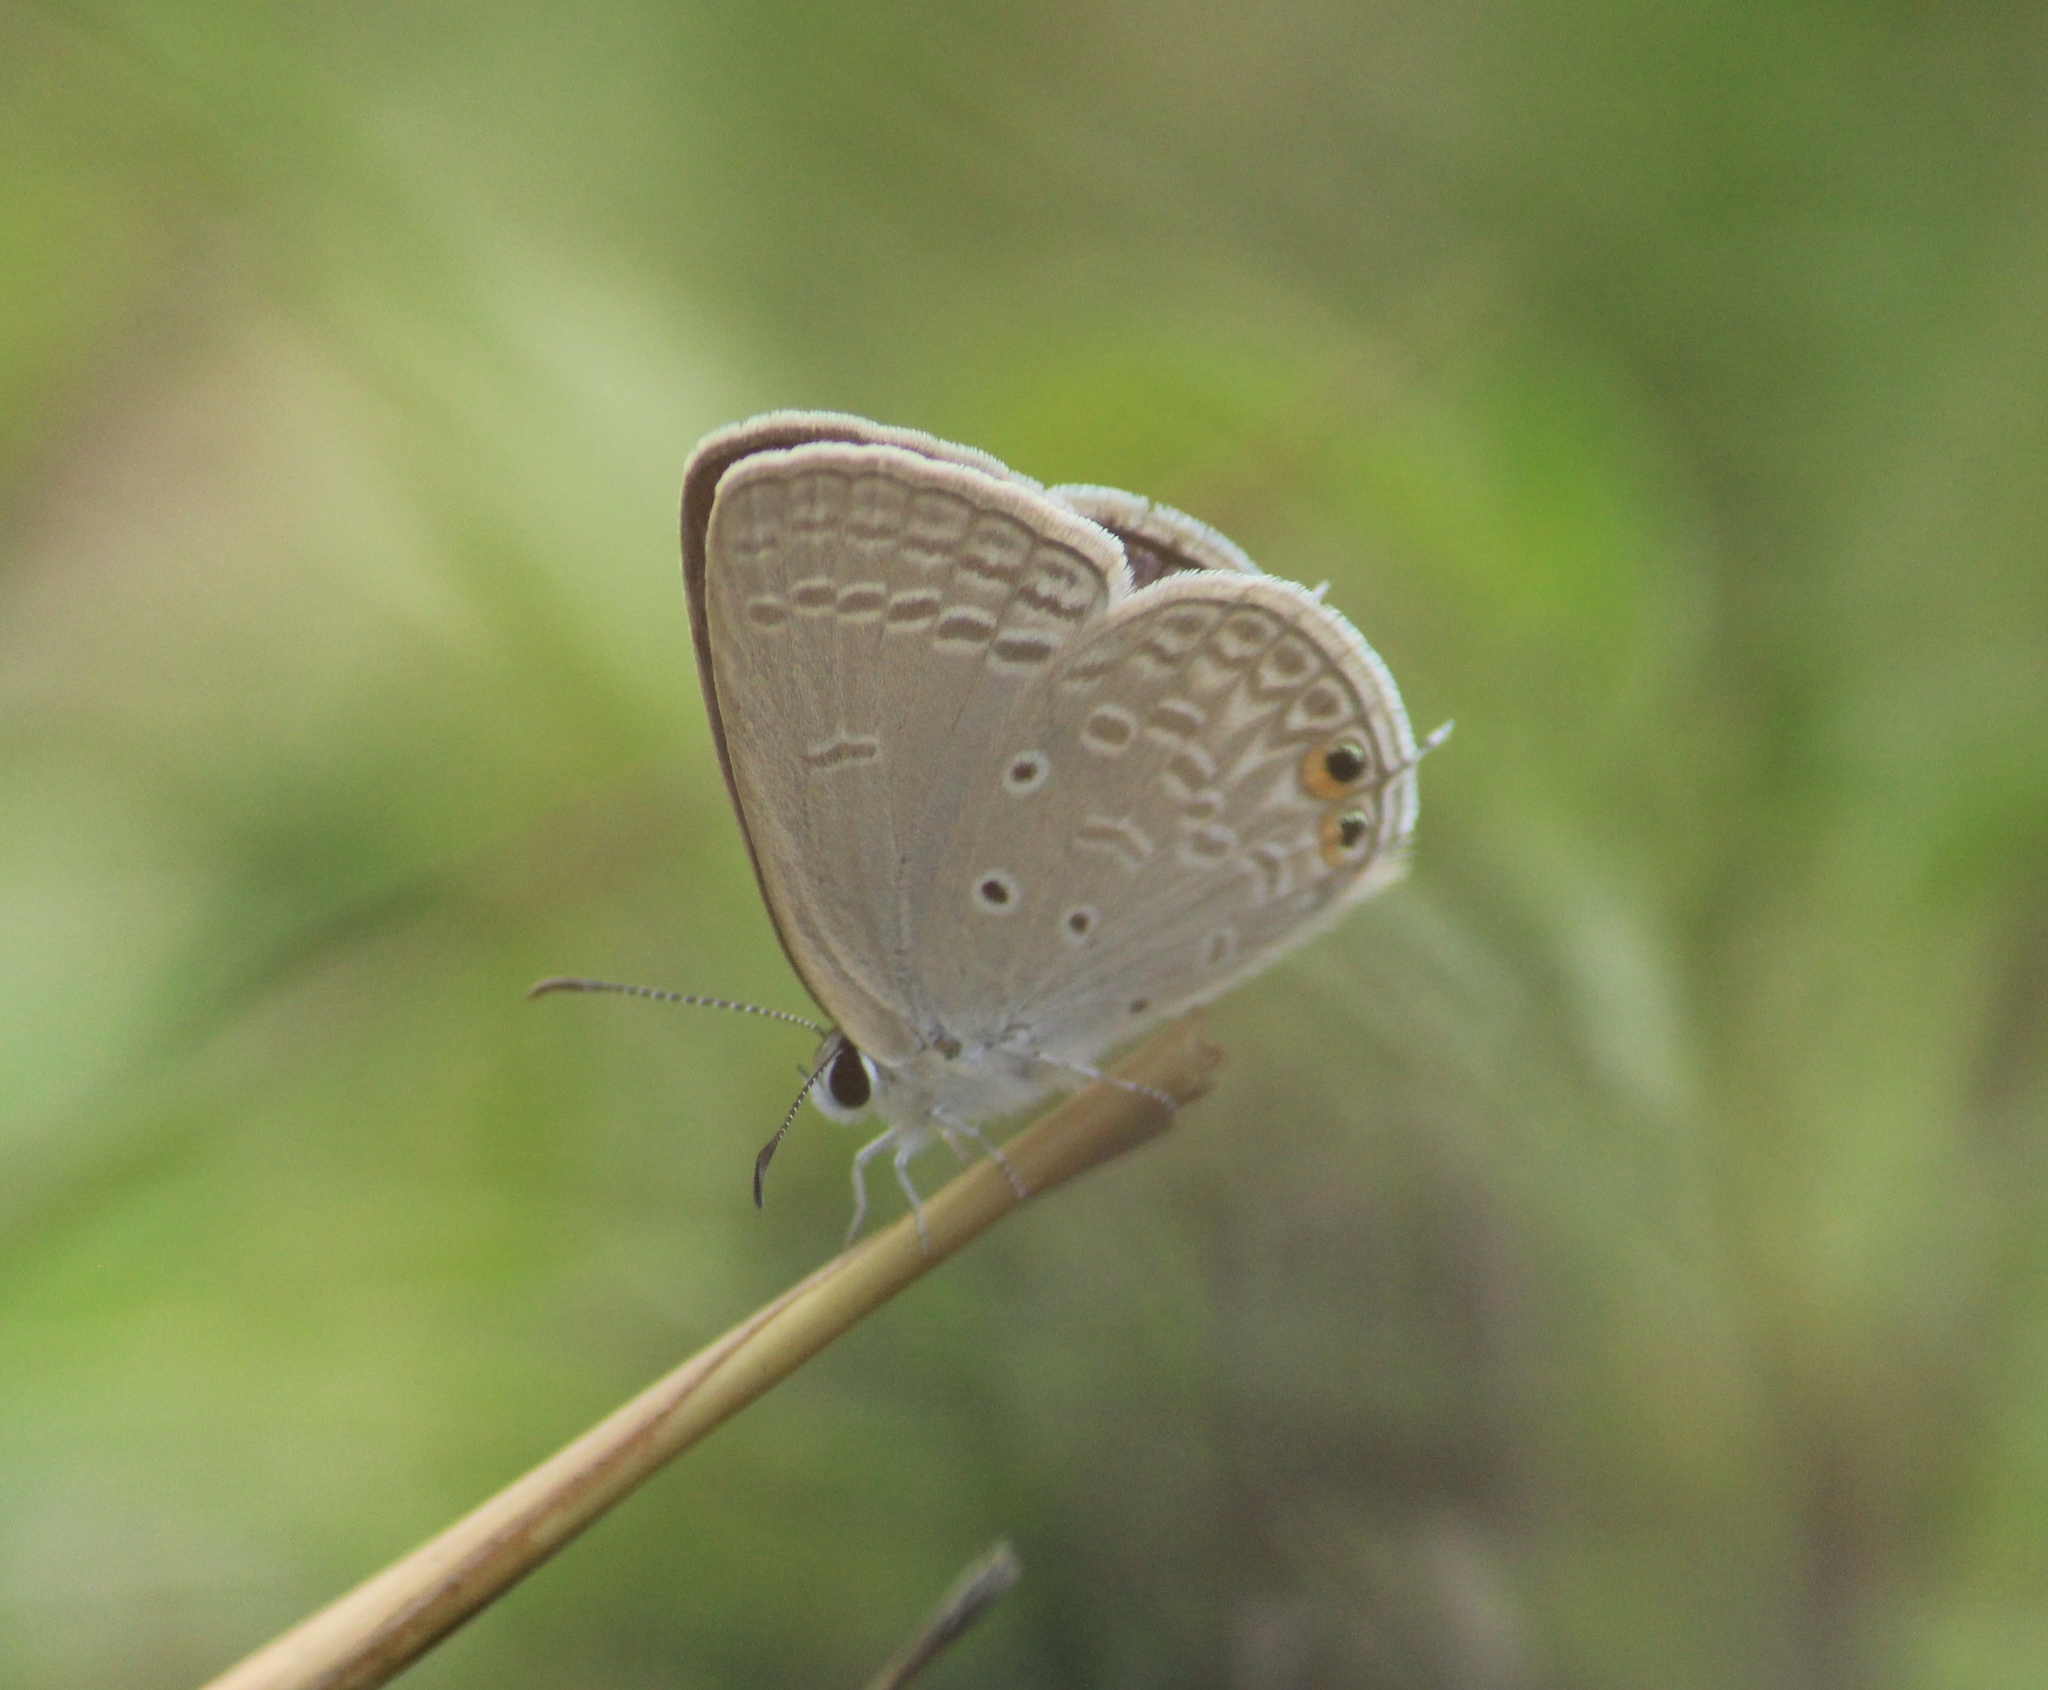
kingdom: Animalia
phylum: Arthropoda
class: Insecta
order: Lepidoptera
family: Lycaenidae
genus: Euchrysops
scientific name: Euchrysops cnejus
